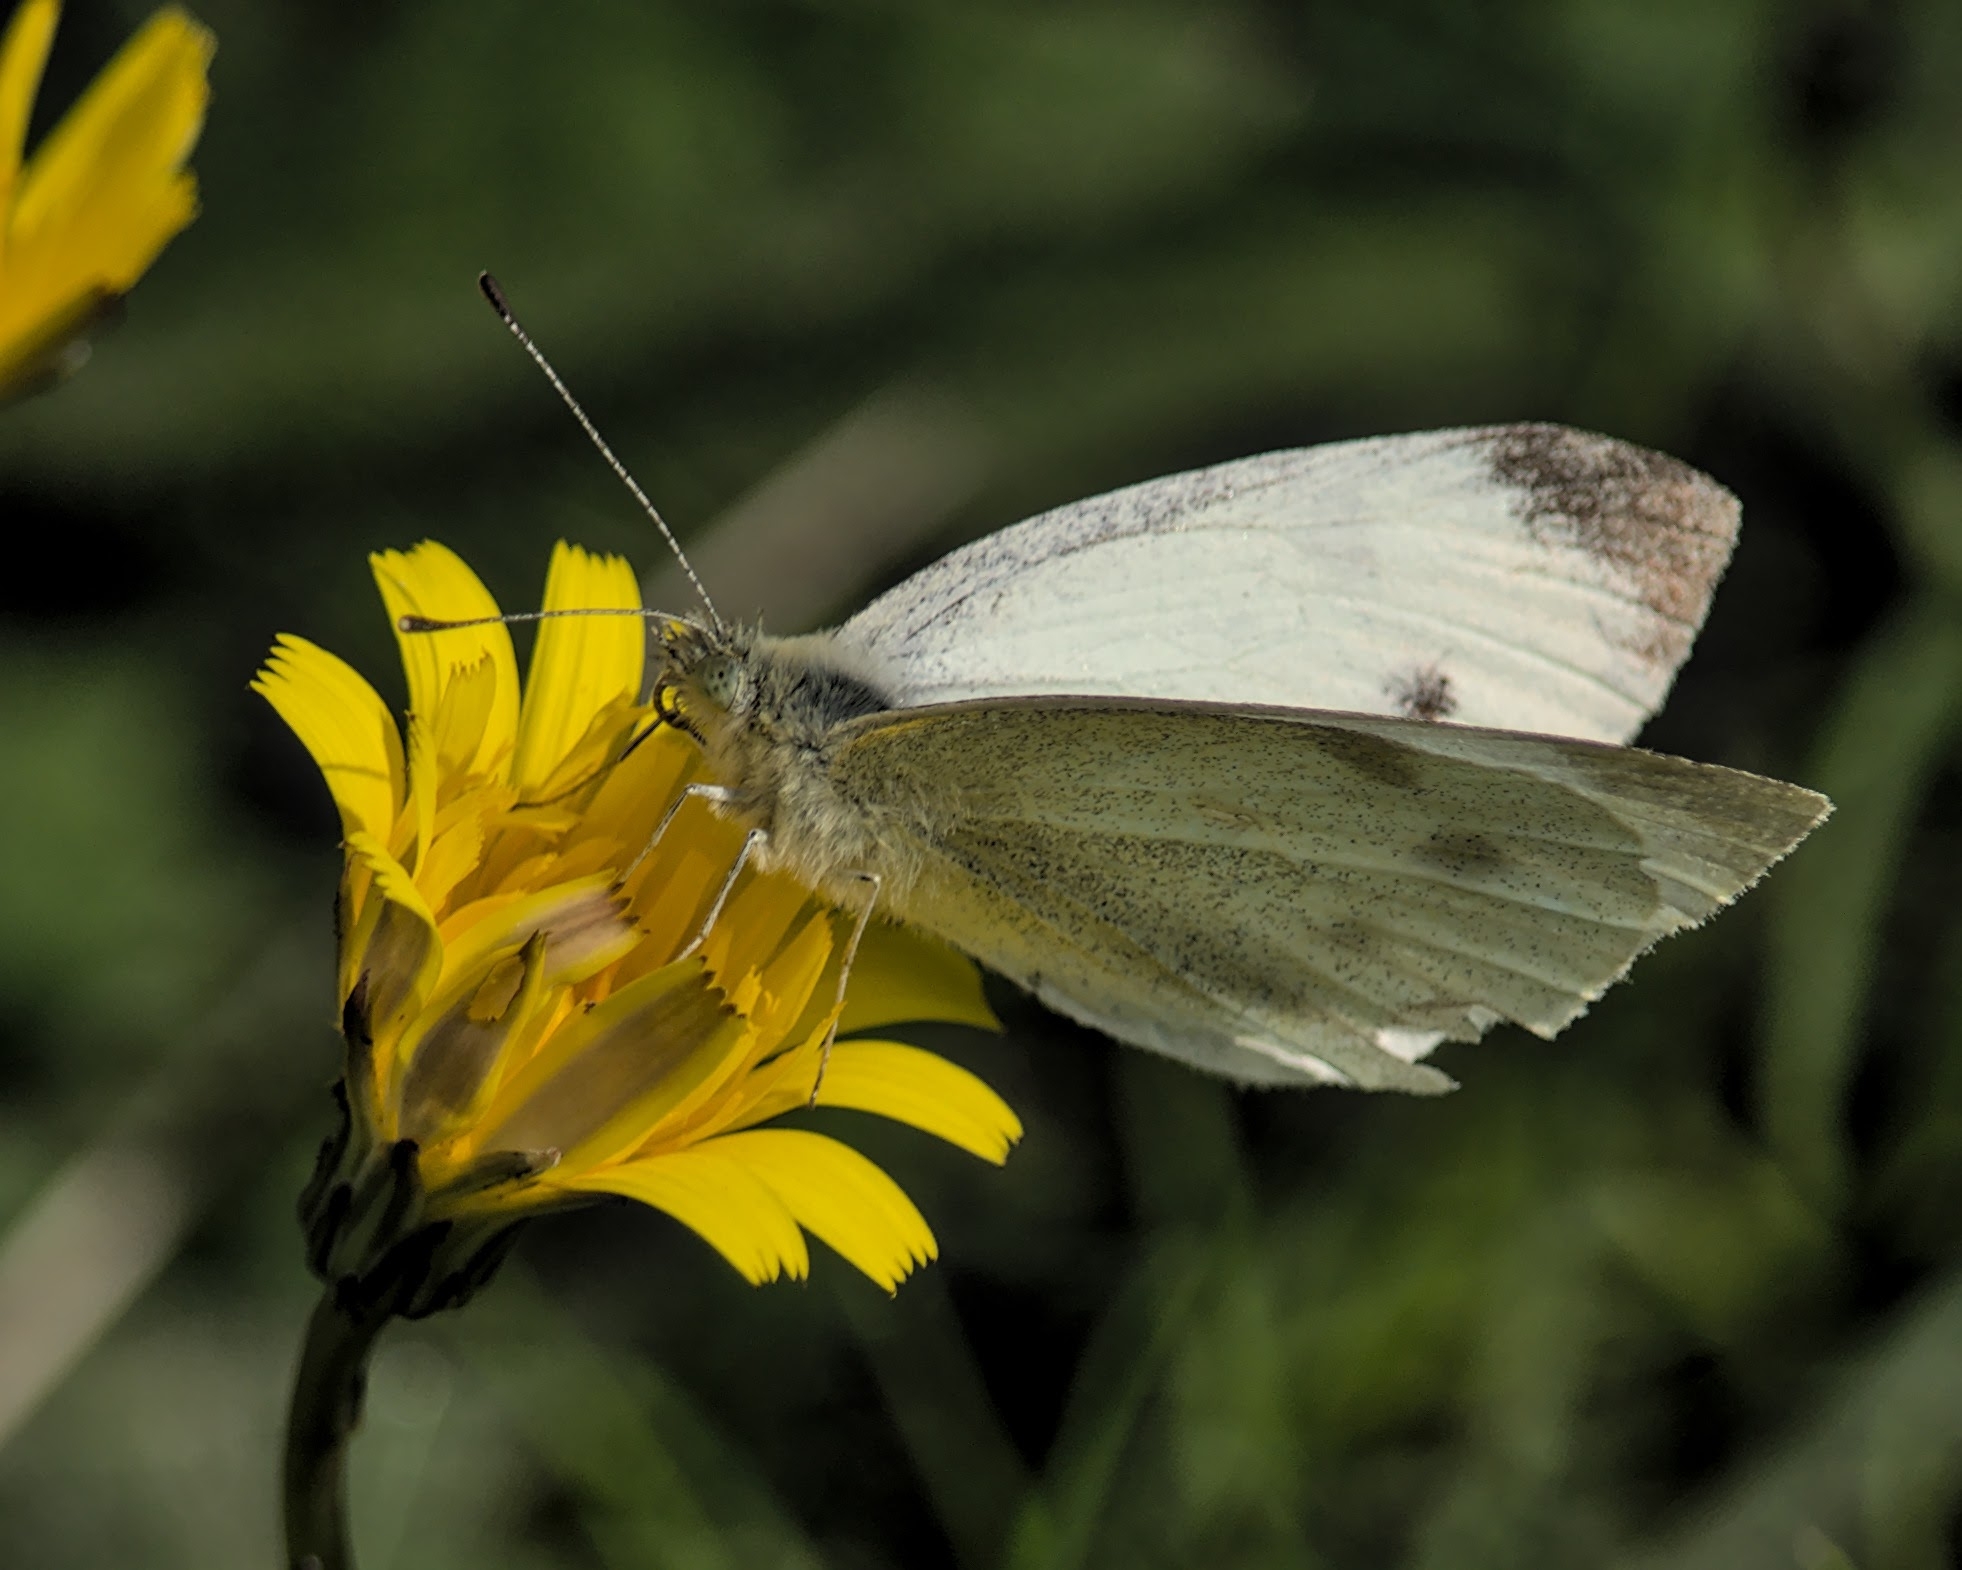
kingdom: Animalia
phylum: Arthropoda
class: Insecta
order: Lepidoptera
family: Pieridae
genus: Pieris
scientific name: Pieris rapae
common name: Small white
